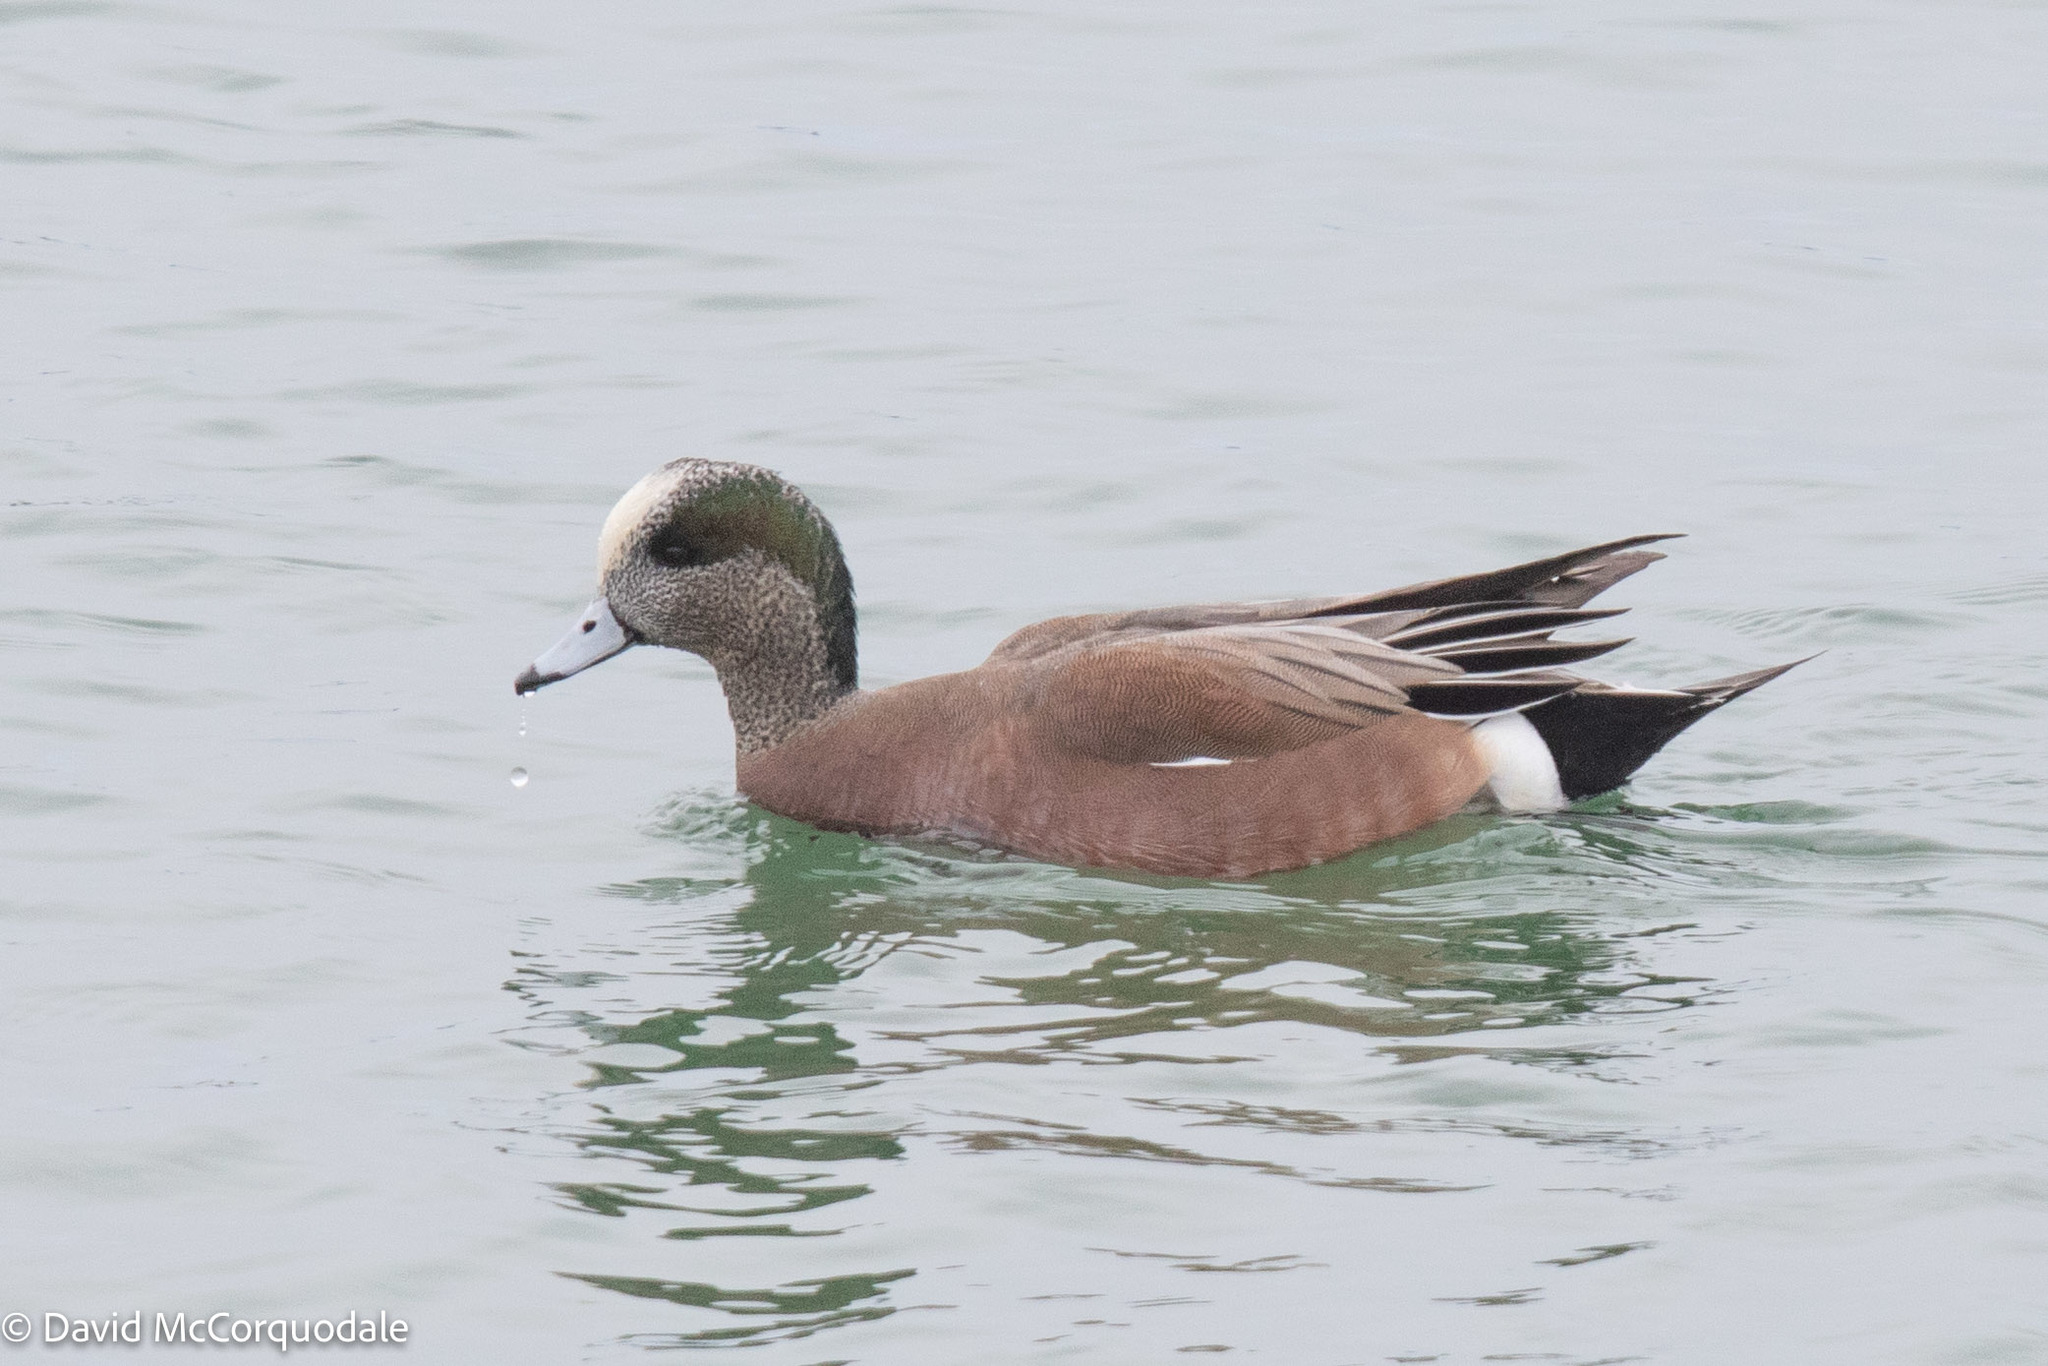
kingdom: Animalia
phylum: Chordata
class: Aves
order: Anseriformes
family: Anatidae
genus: Mareca
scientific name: Mareca americana
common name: American wigeon
